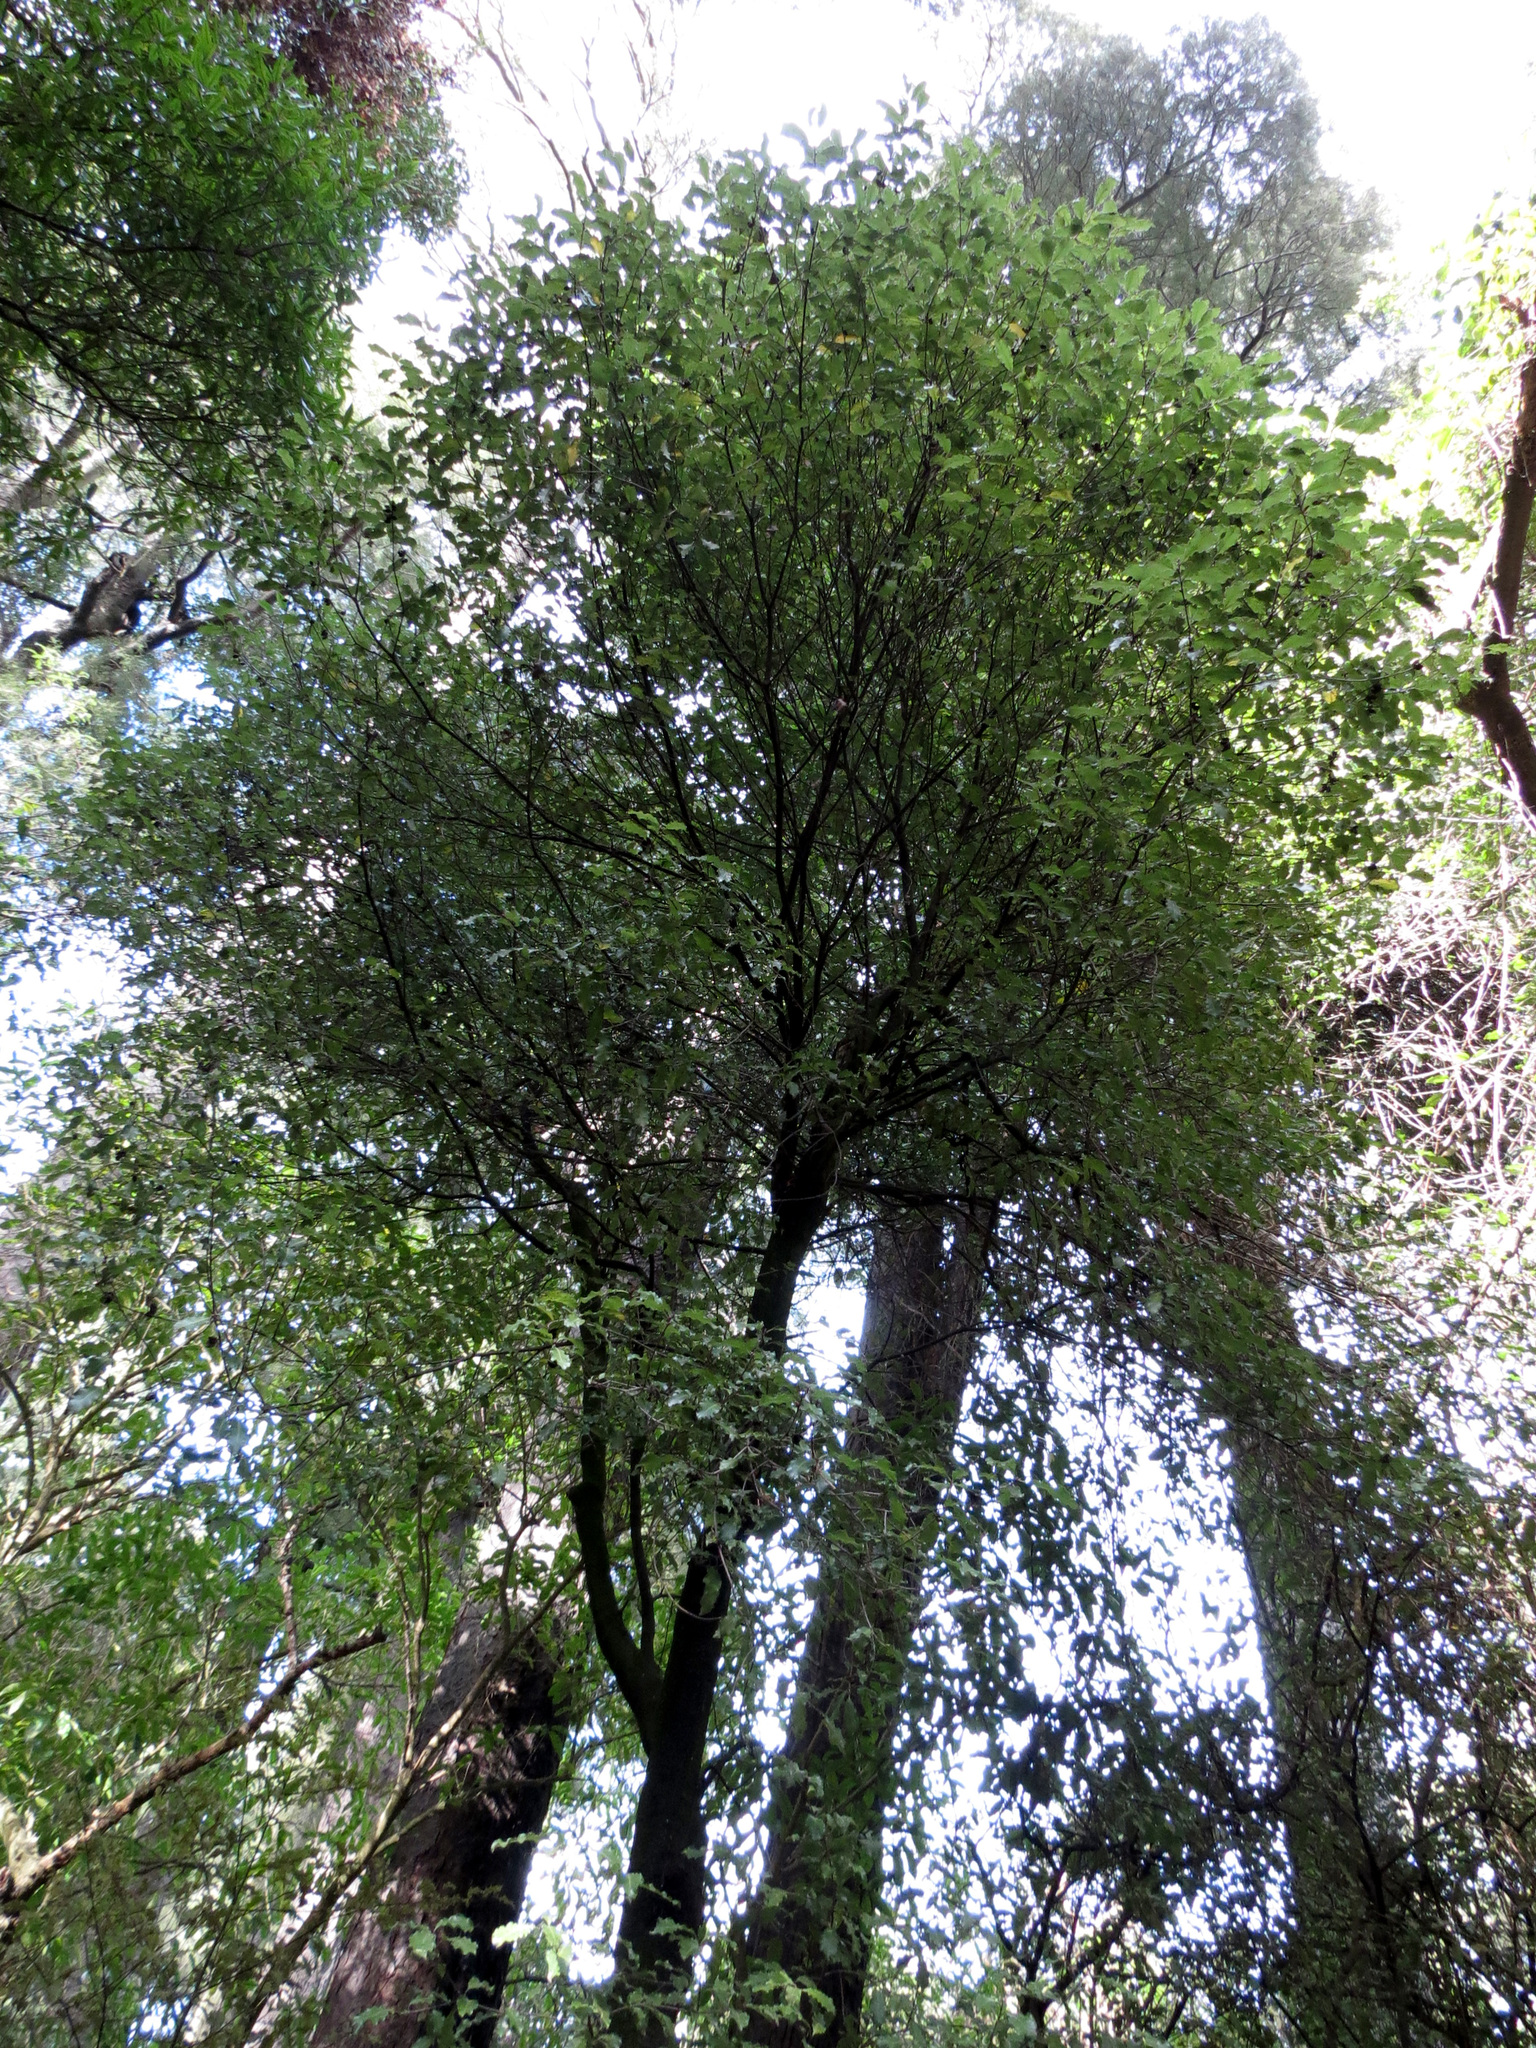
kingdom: Plantae
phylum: Tracheophyta
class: Magnoliopsida
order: Apiales
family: Pittosporaceae
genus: Pittosporum
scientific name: Pittosporum tenuifolium
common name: Kohuhu
